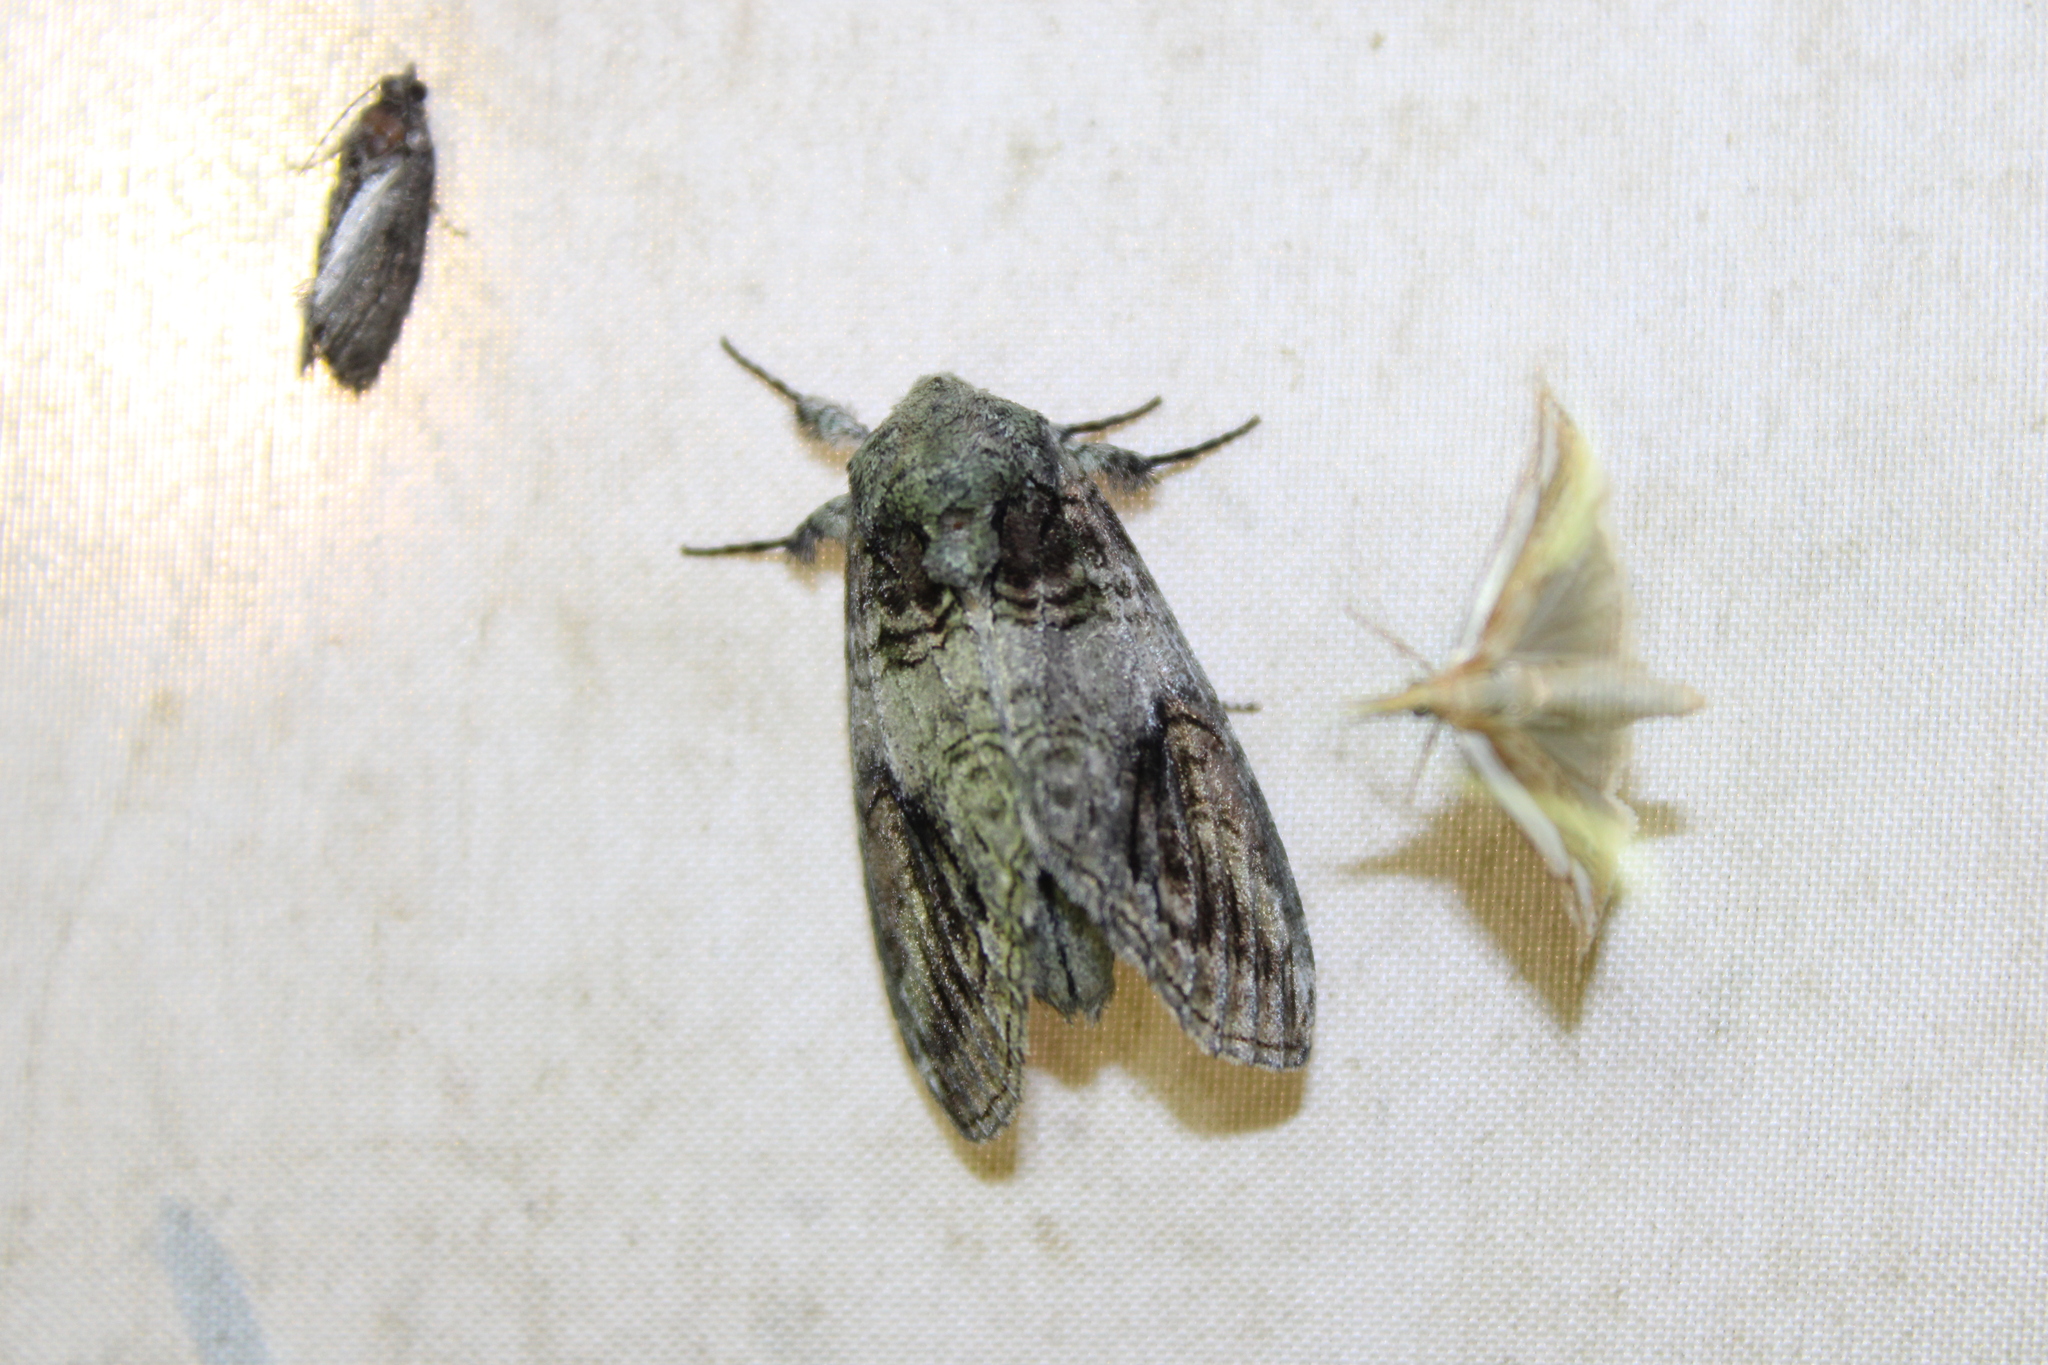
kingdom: Animalia
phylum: Arthropoda
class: Insecta
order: Lepidoptera
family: Notodontidae
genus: Heterocampa
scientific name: Heterocampa obliqua
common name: Oblique heterocampa
